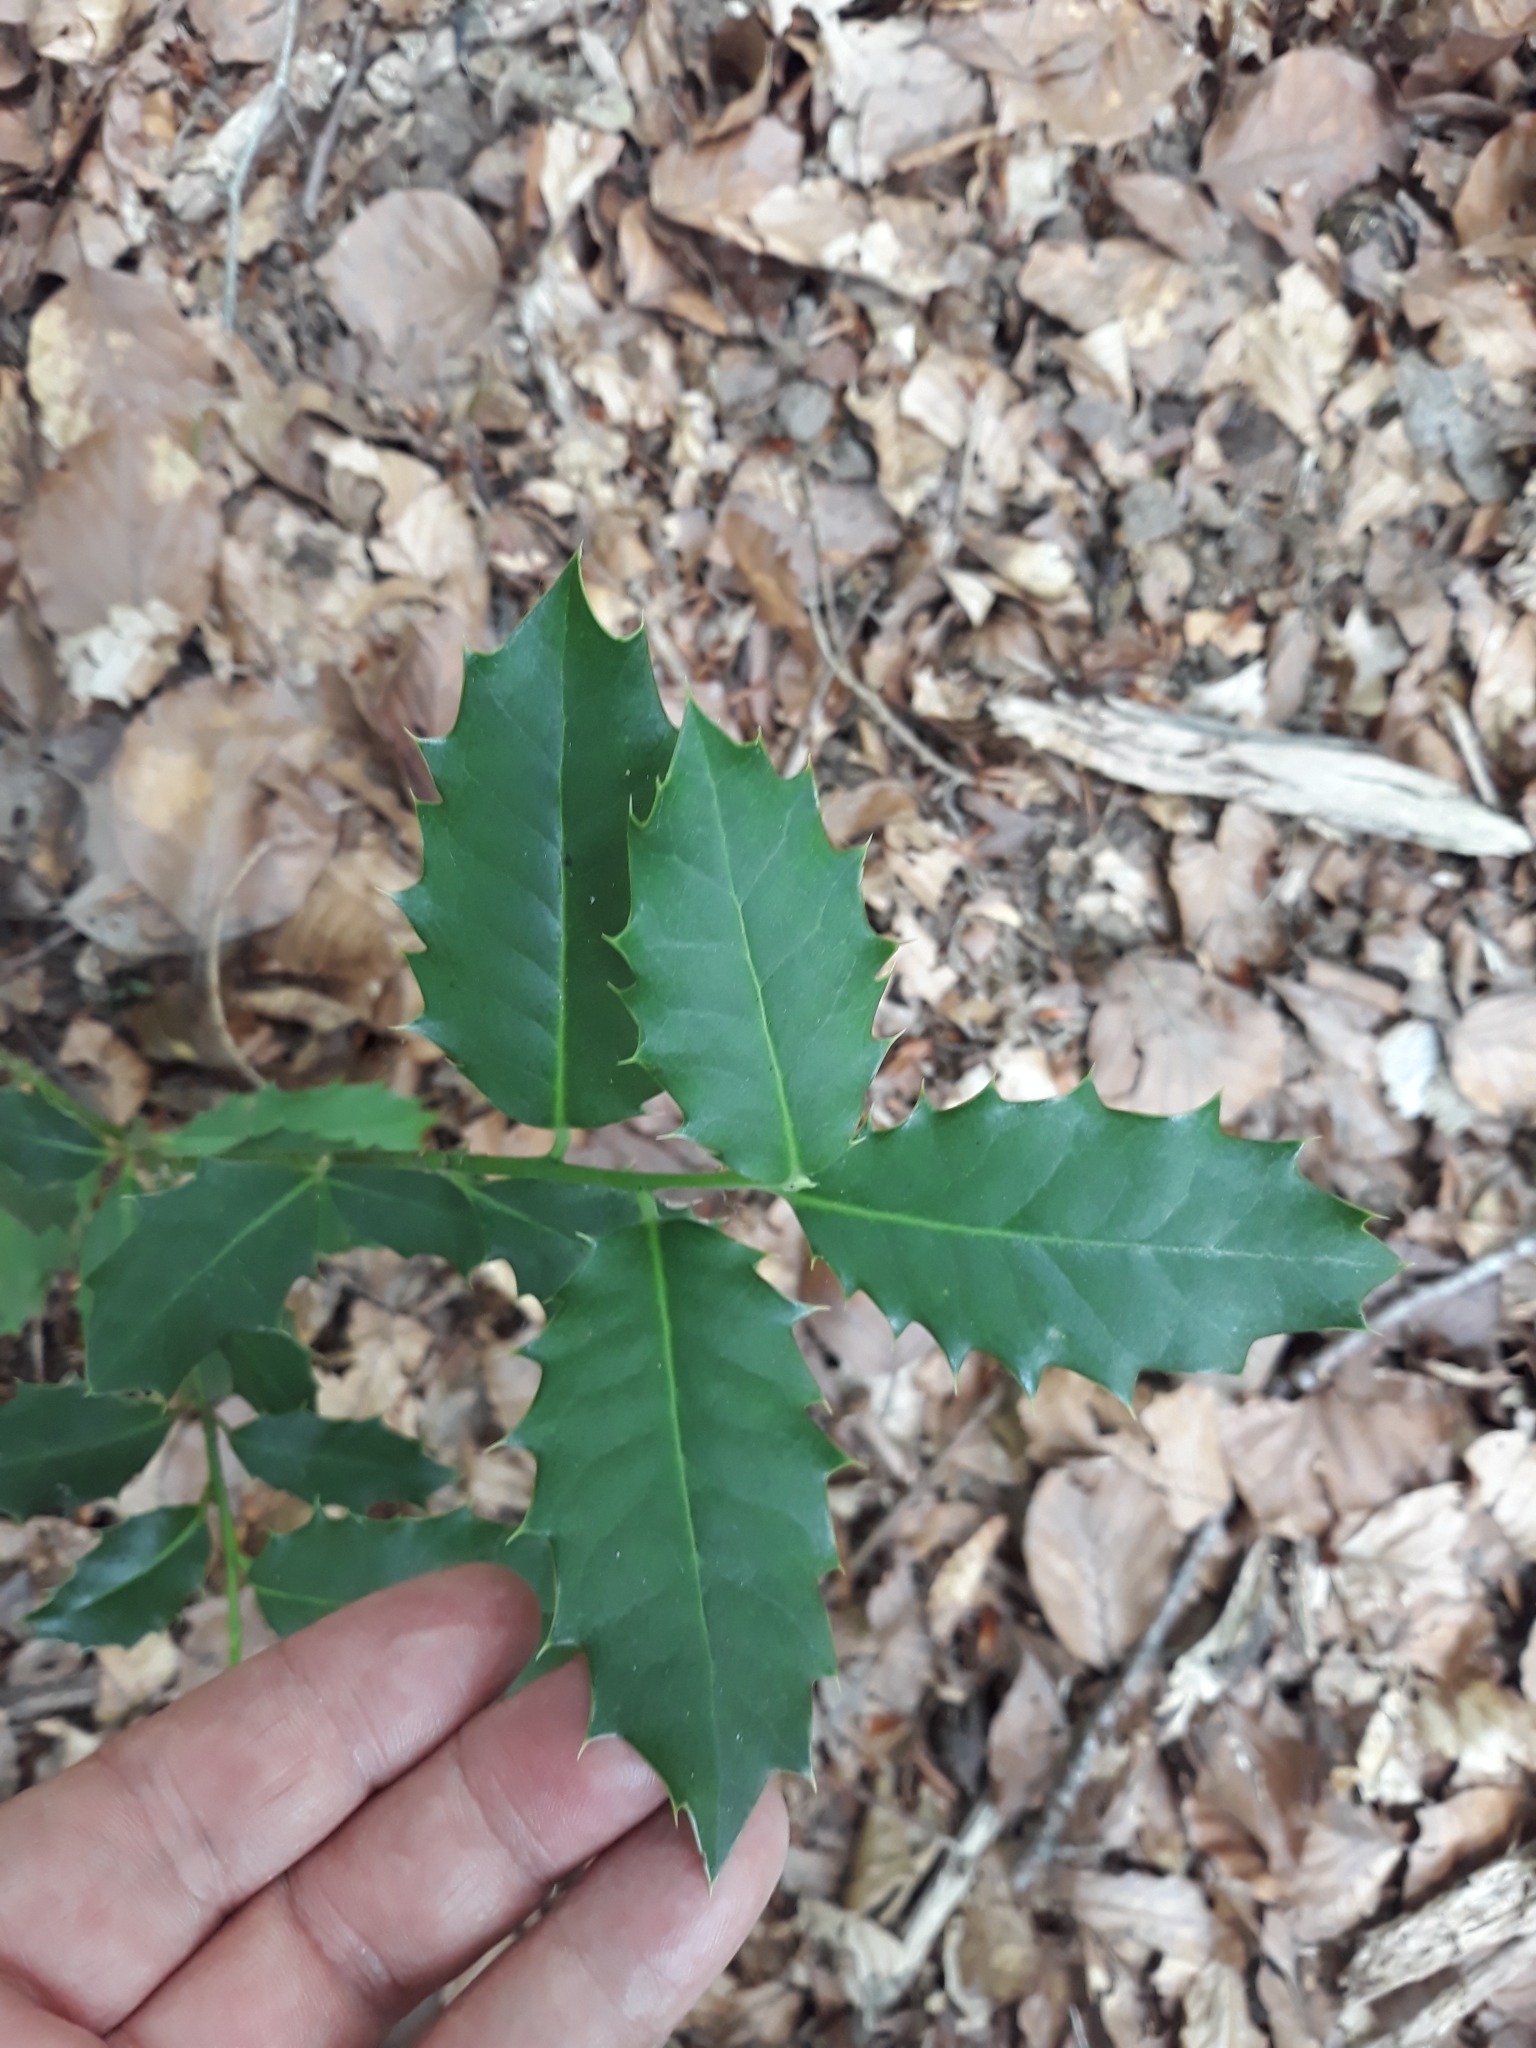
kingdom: Plantae
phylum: Tracheophyta
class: Magnoliopsida
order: Aquifoliales
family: Aquifoliaceae
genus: Ilex
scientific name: Ilex aquifolium
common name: English holly
